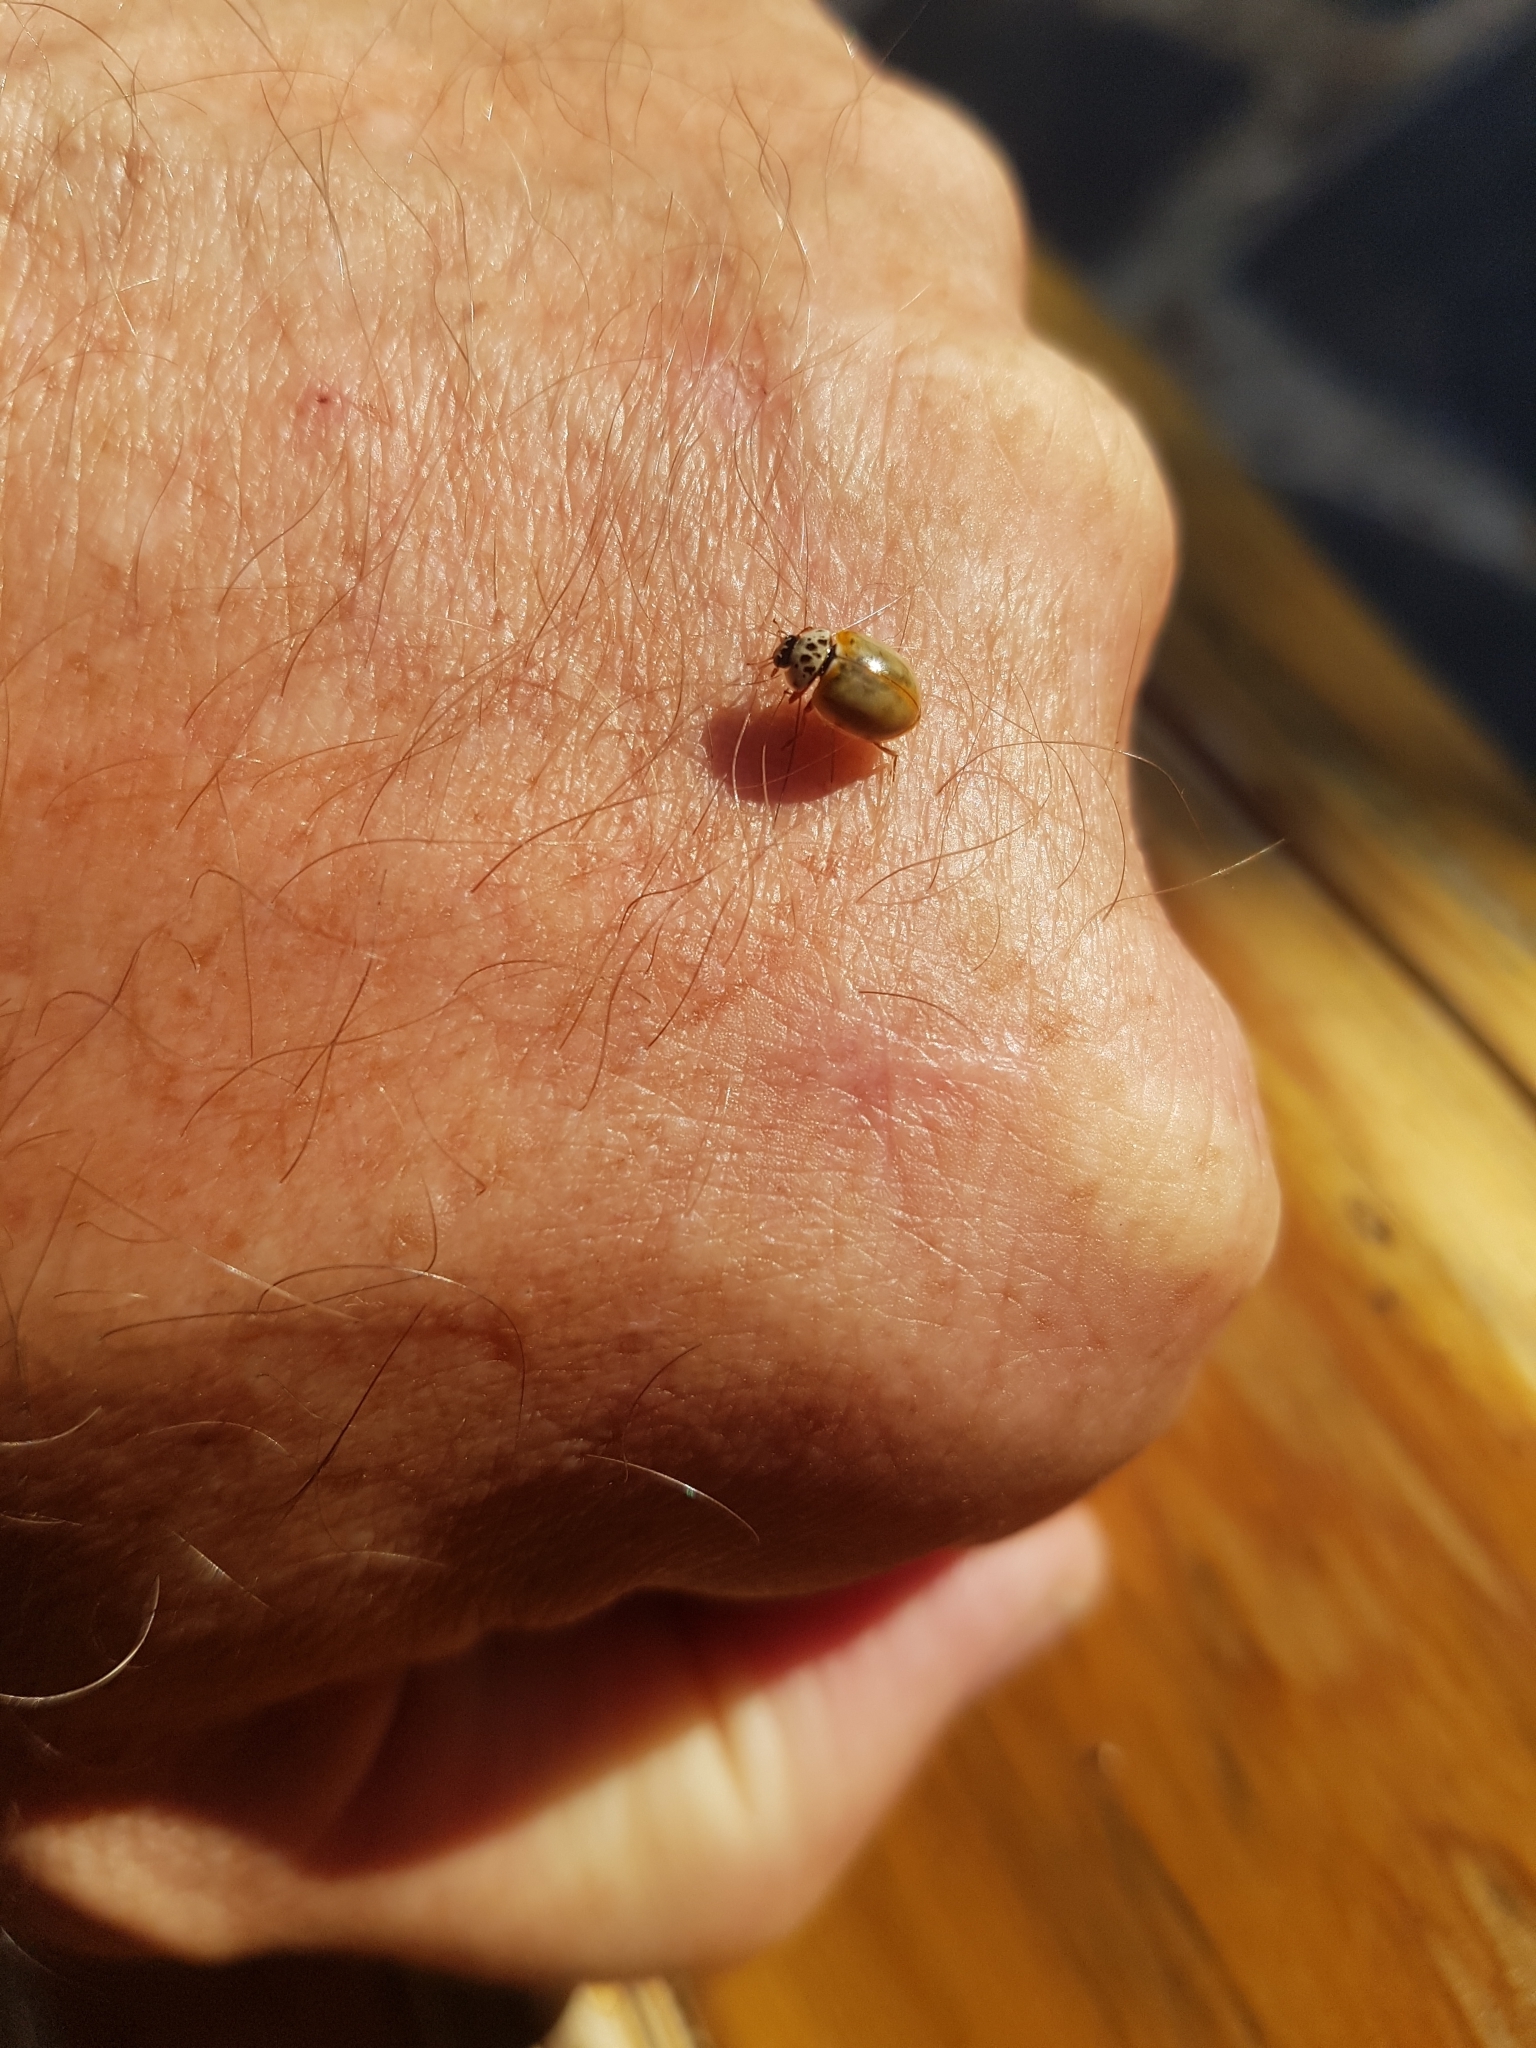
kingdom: Animalia
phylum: Arthropoda
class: Insecta
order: Coleoptera
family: Coccinellidae
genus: Harmonia
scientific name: Harmonia quadripunctata
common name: Cream-streaked ladybird
